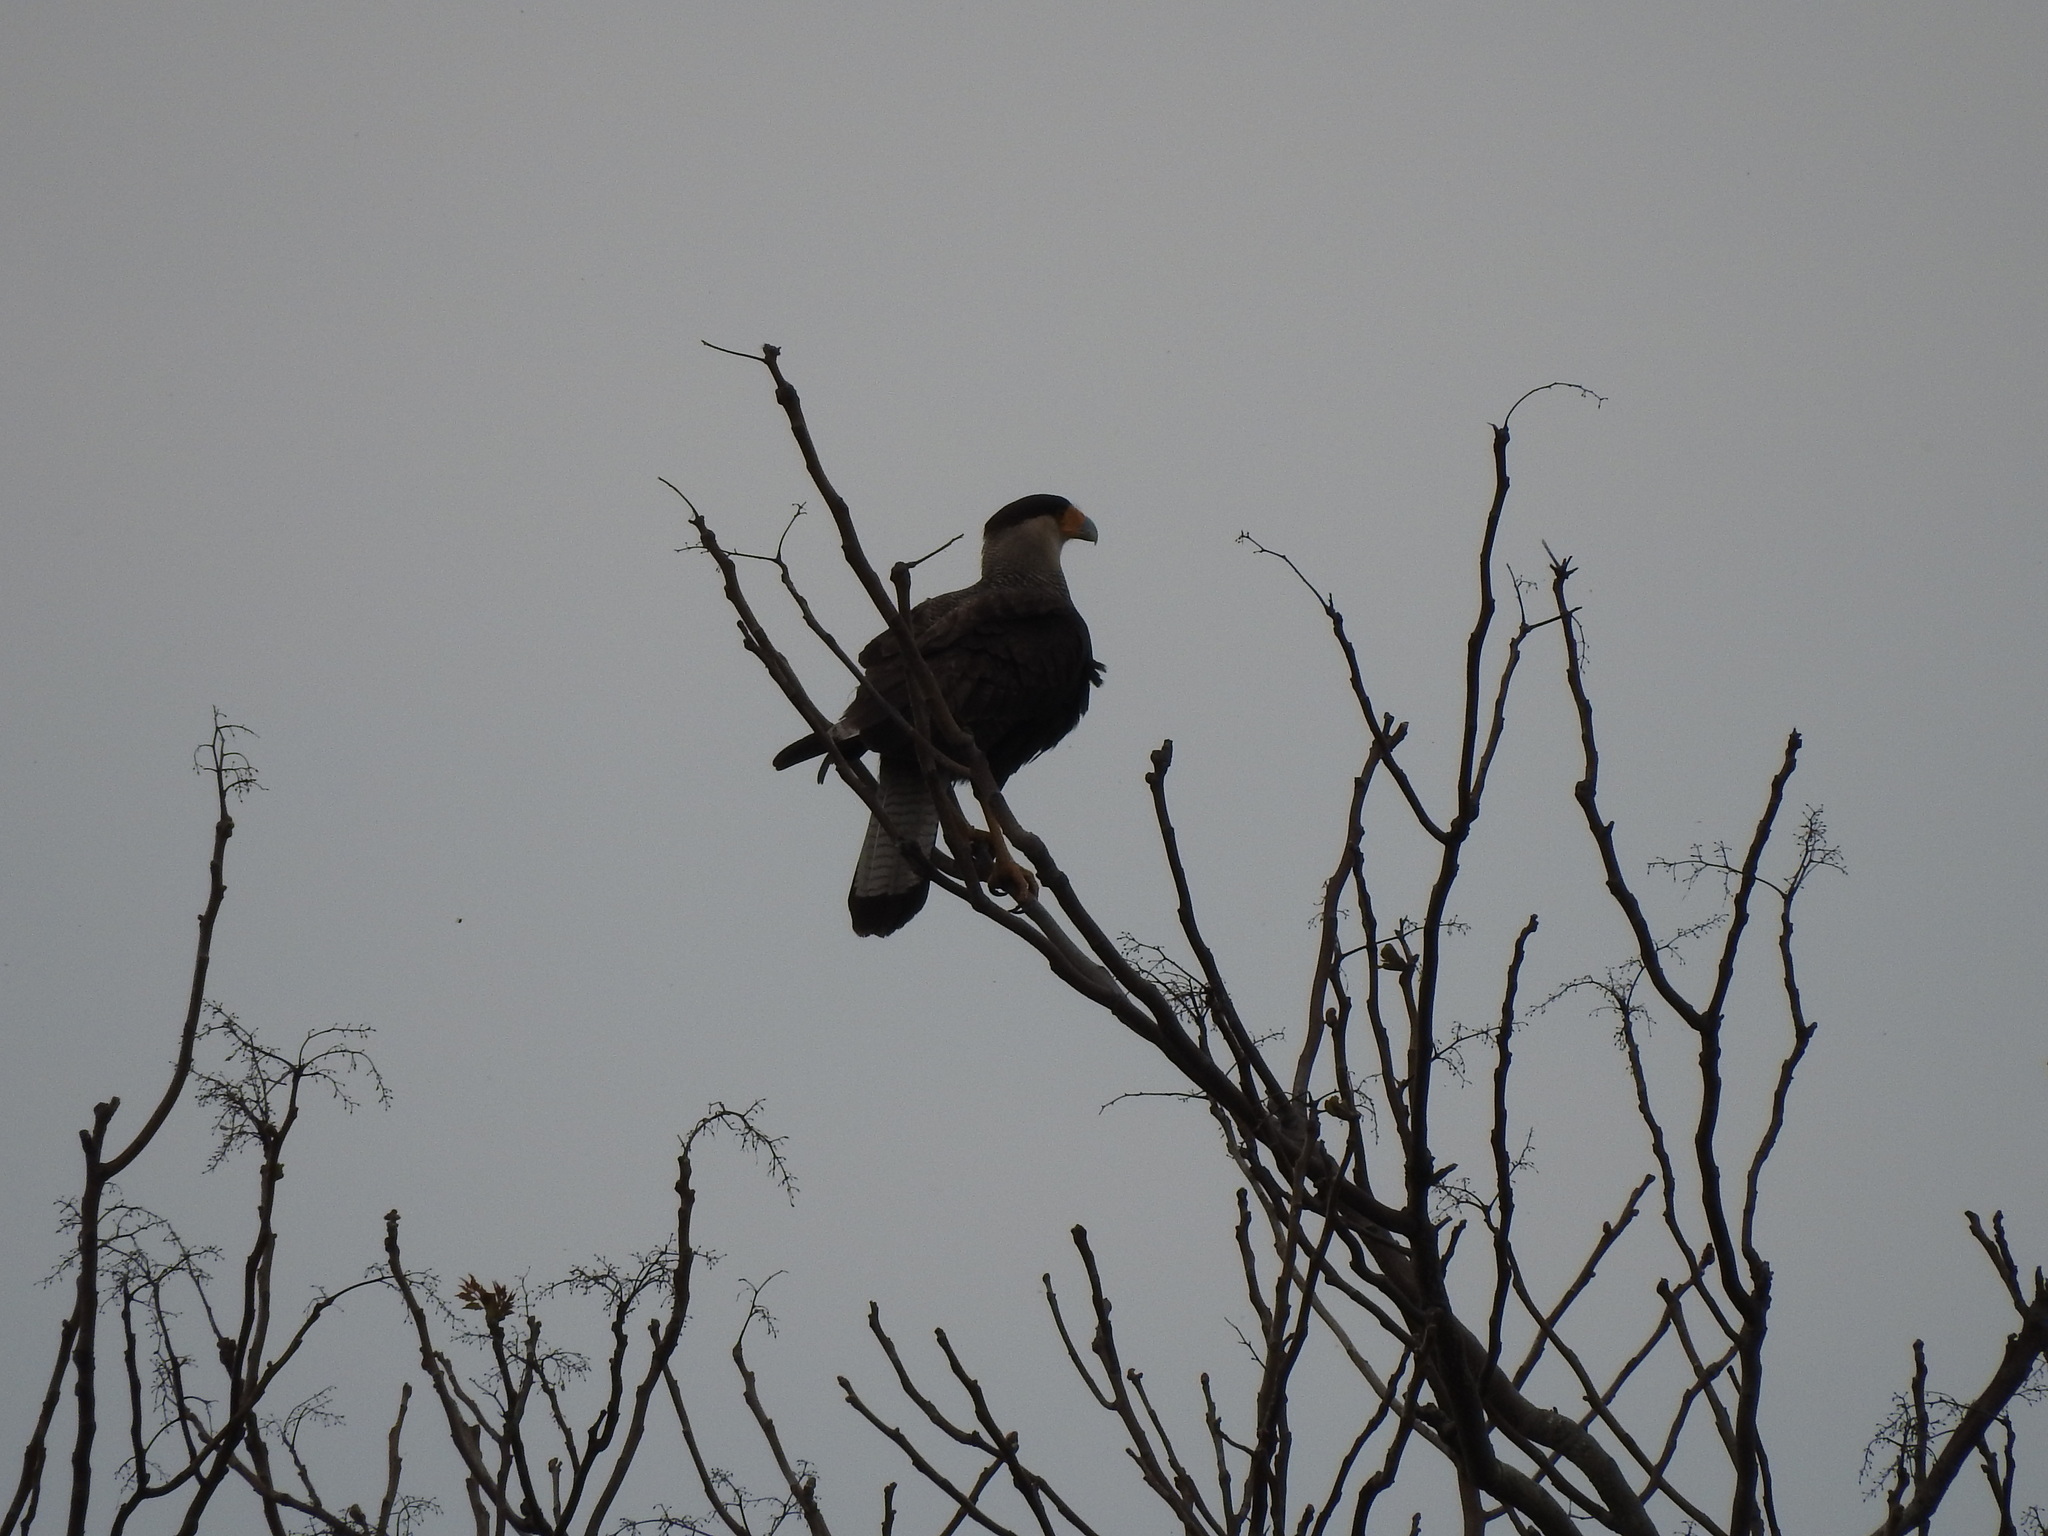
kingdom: Animalia
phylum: Chordata
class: Aves
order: Falconiformes
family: Falconidae
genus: Caracara
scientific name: Caracara plancus
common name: Southern caracara
